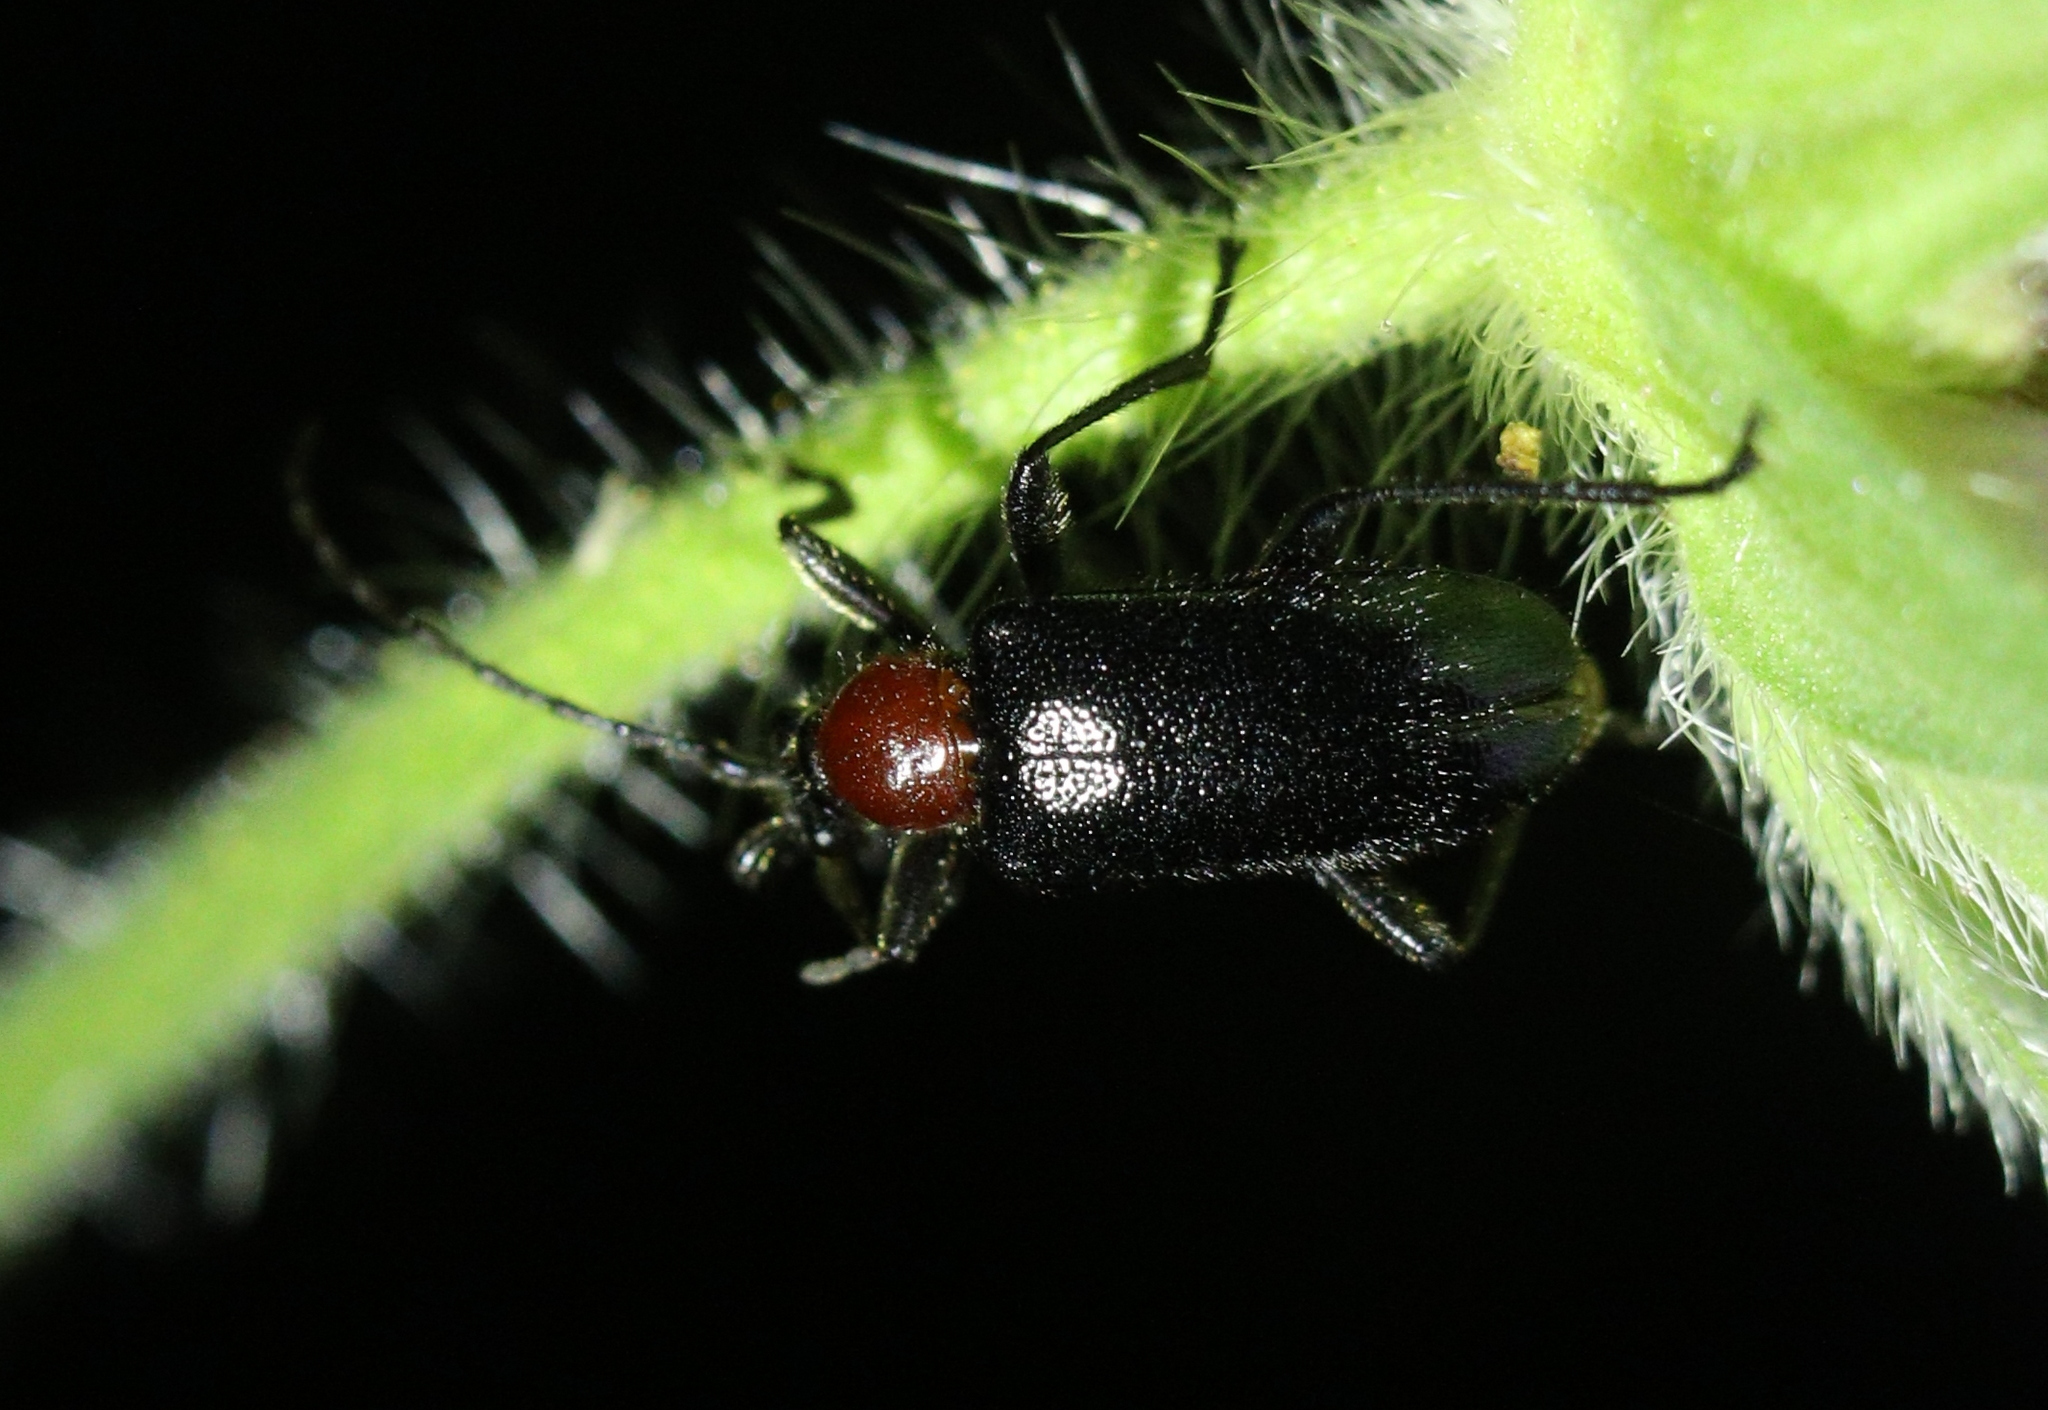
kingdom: Animalia
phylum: Arthropoda
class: Insecta
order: Coleoptera
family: Cerambycidae
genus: Dinoptera
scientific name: Dinoptera collaris
